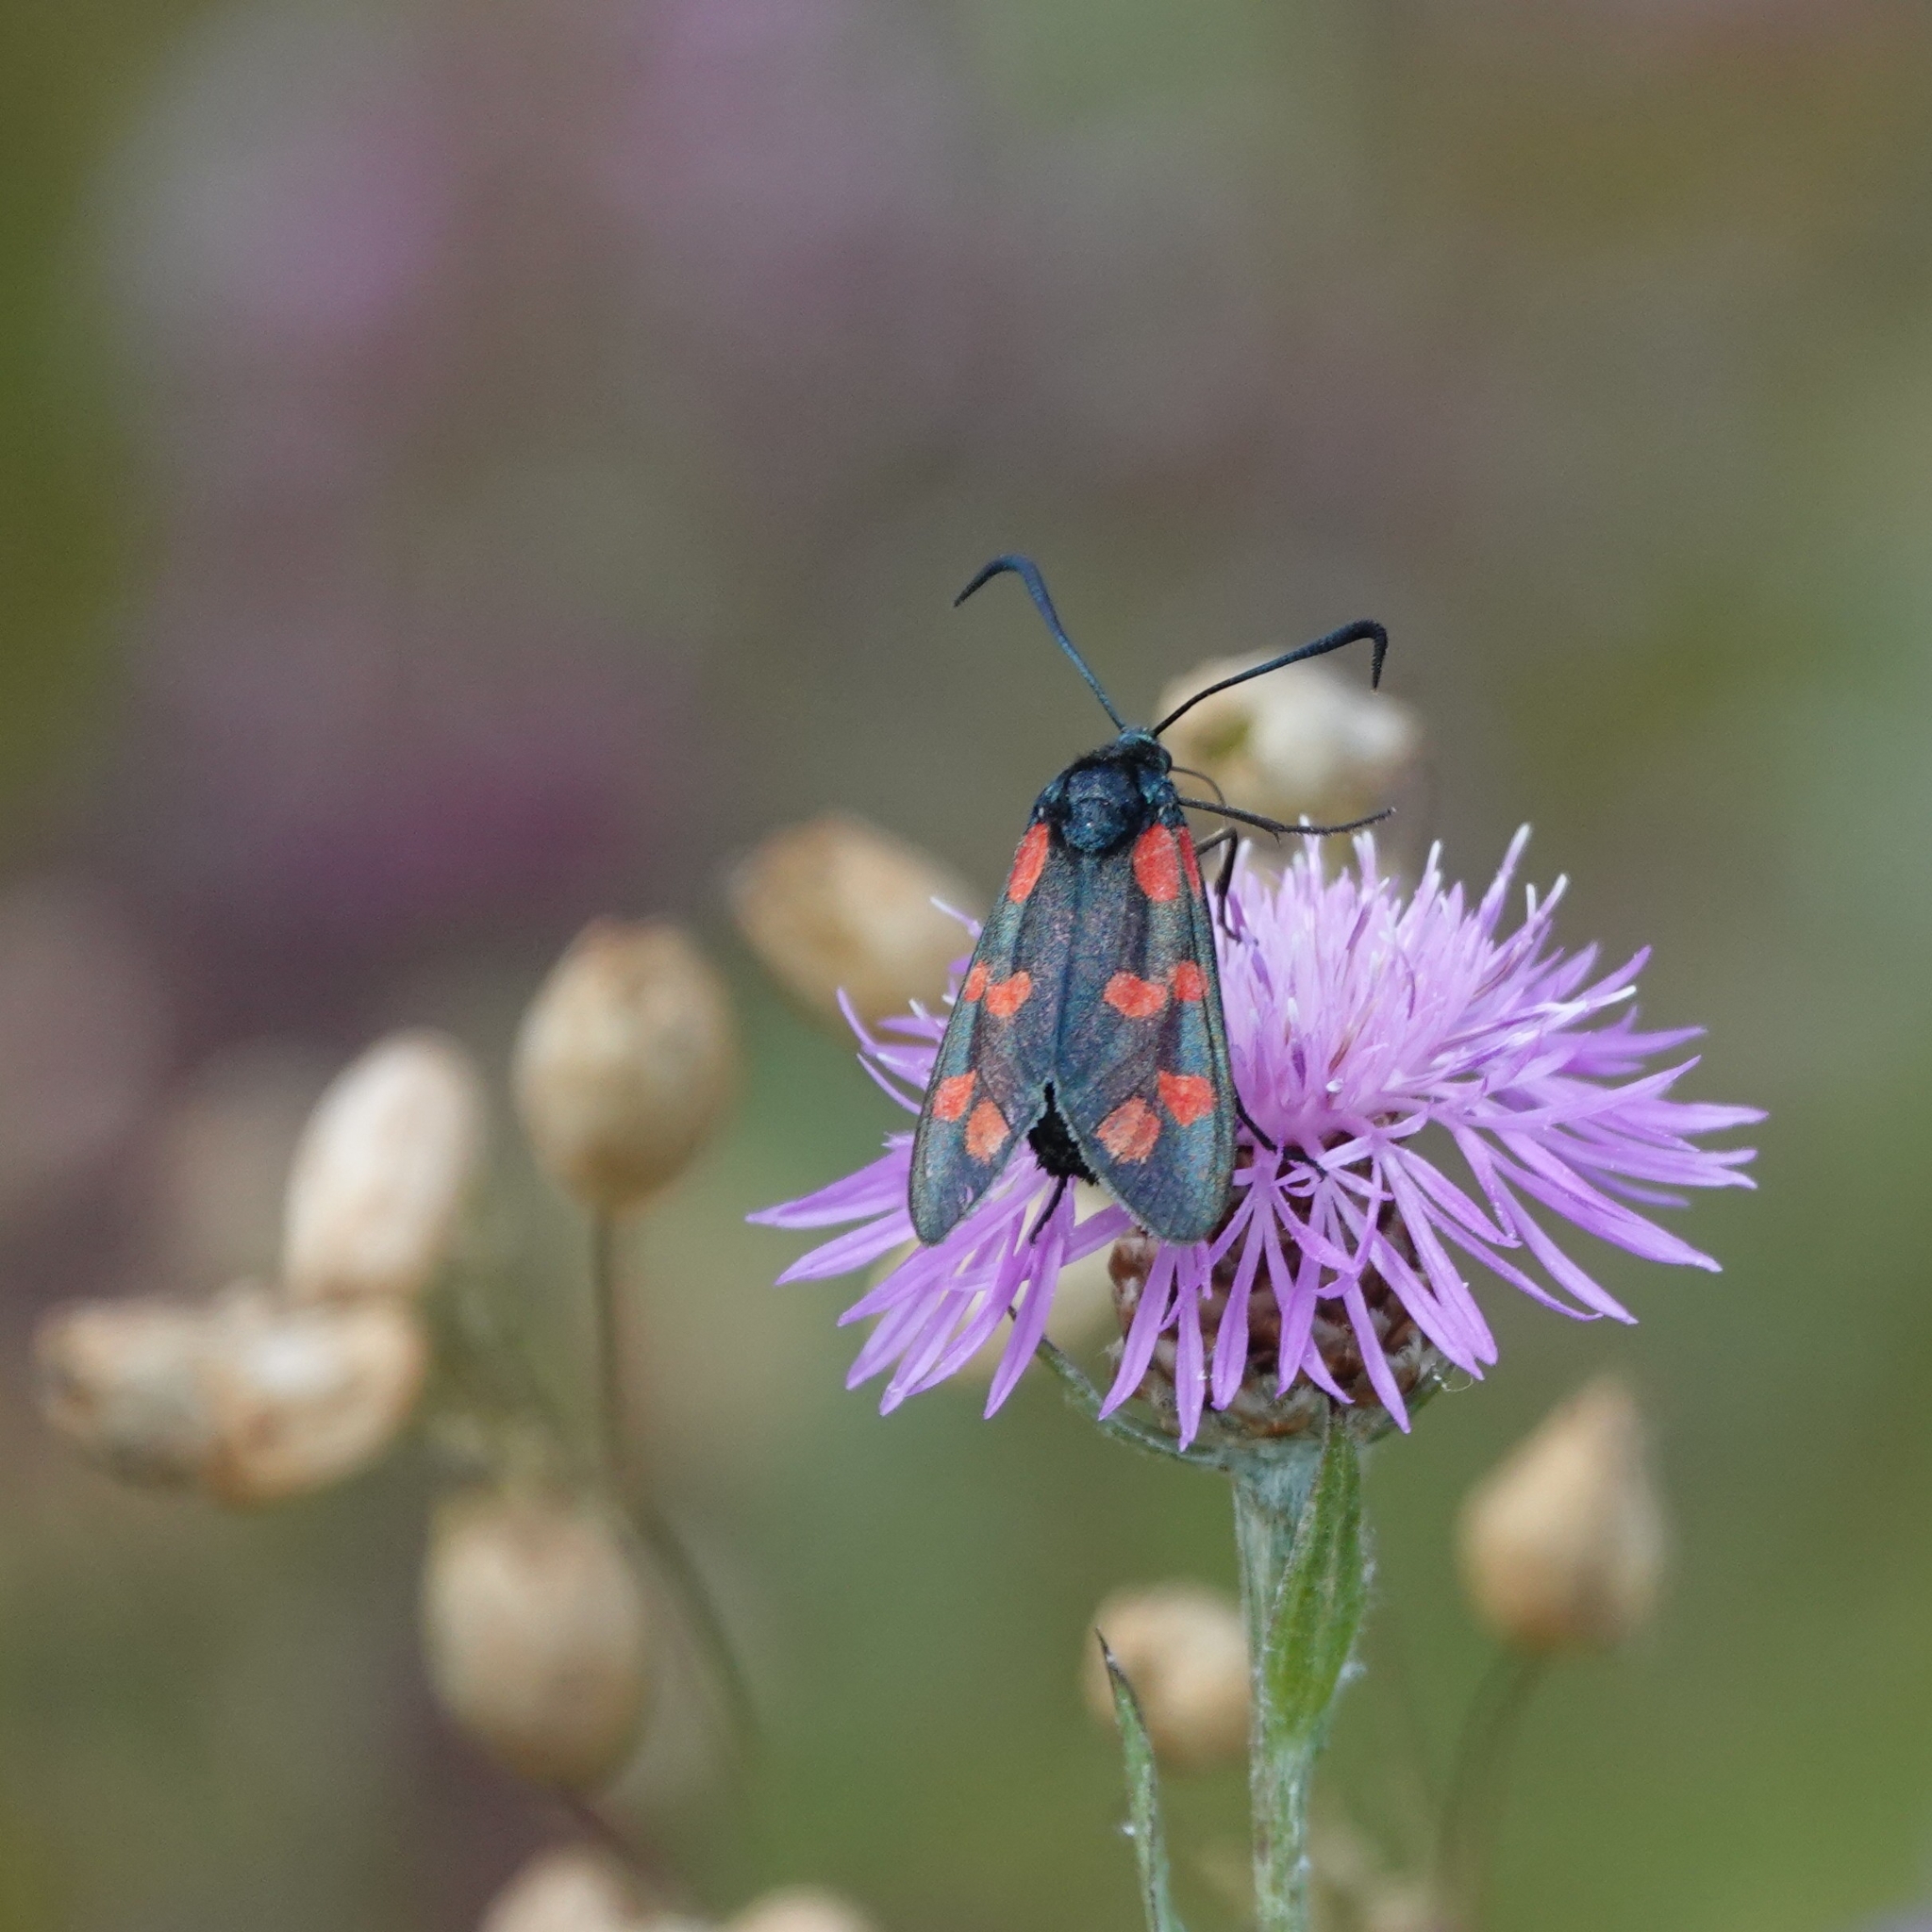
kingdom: Animalia
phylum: Arthropoda
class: Insecta
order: Lepidoptera
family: Zygaenidae
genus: Zygaena
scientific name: Zygaena filipendulae
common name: Six-spot burnet
